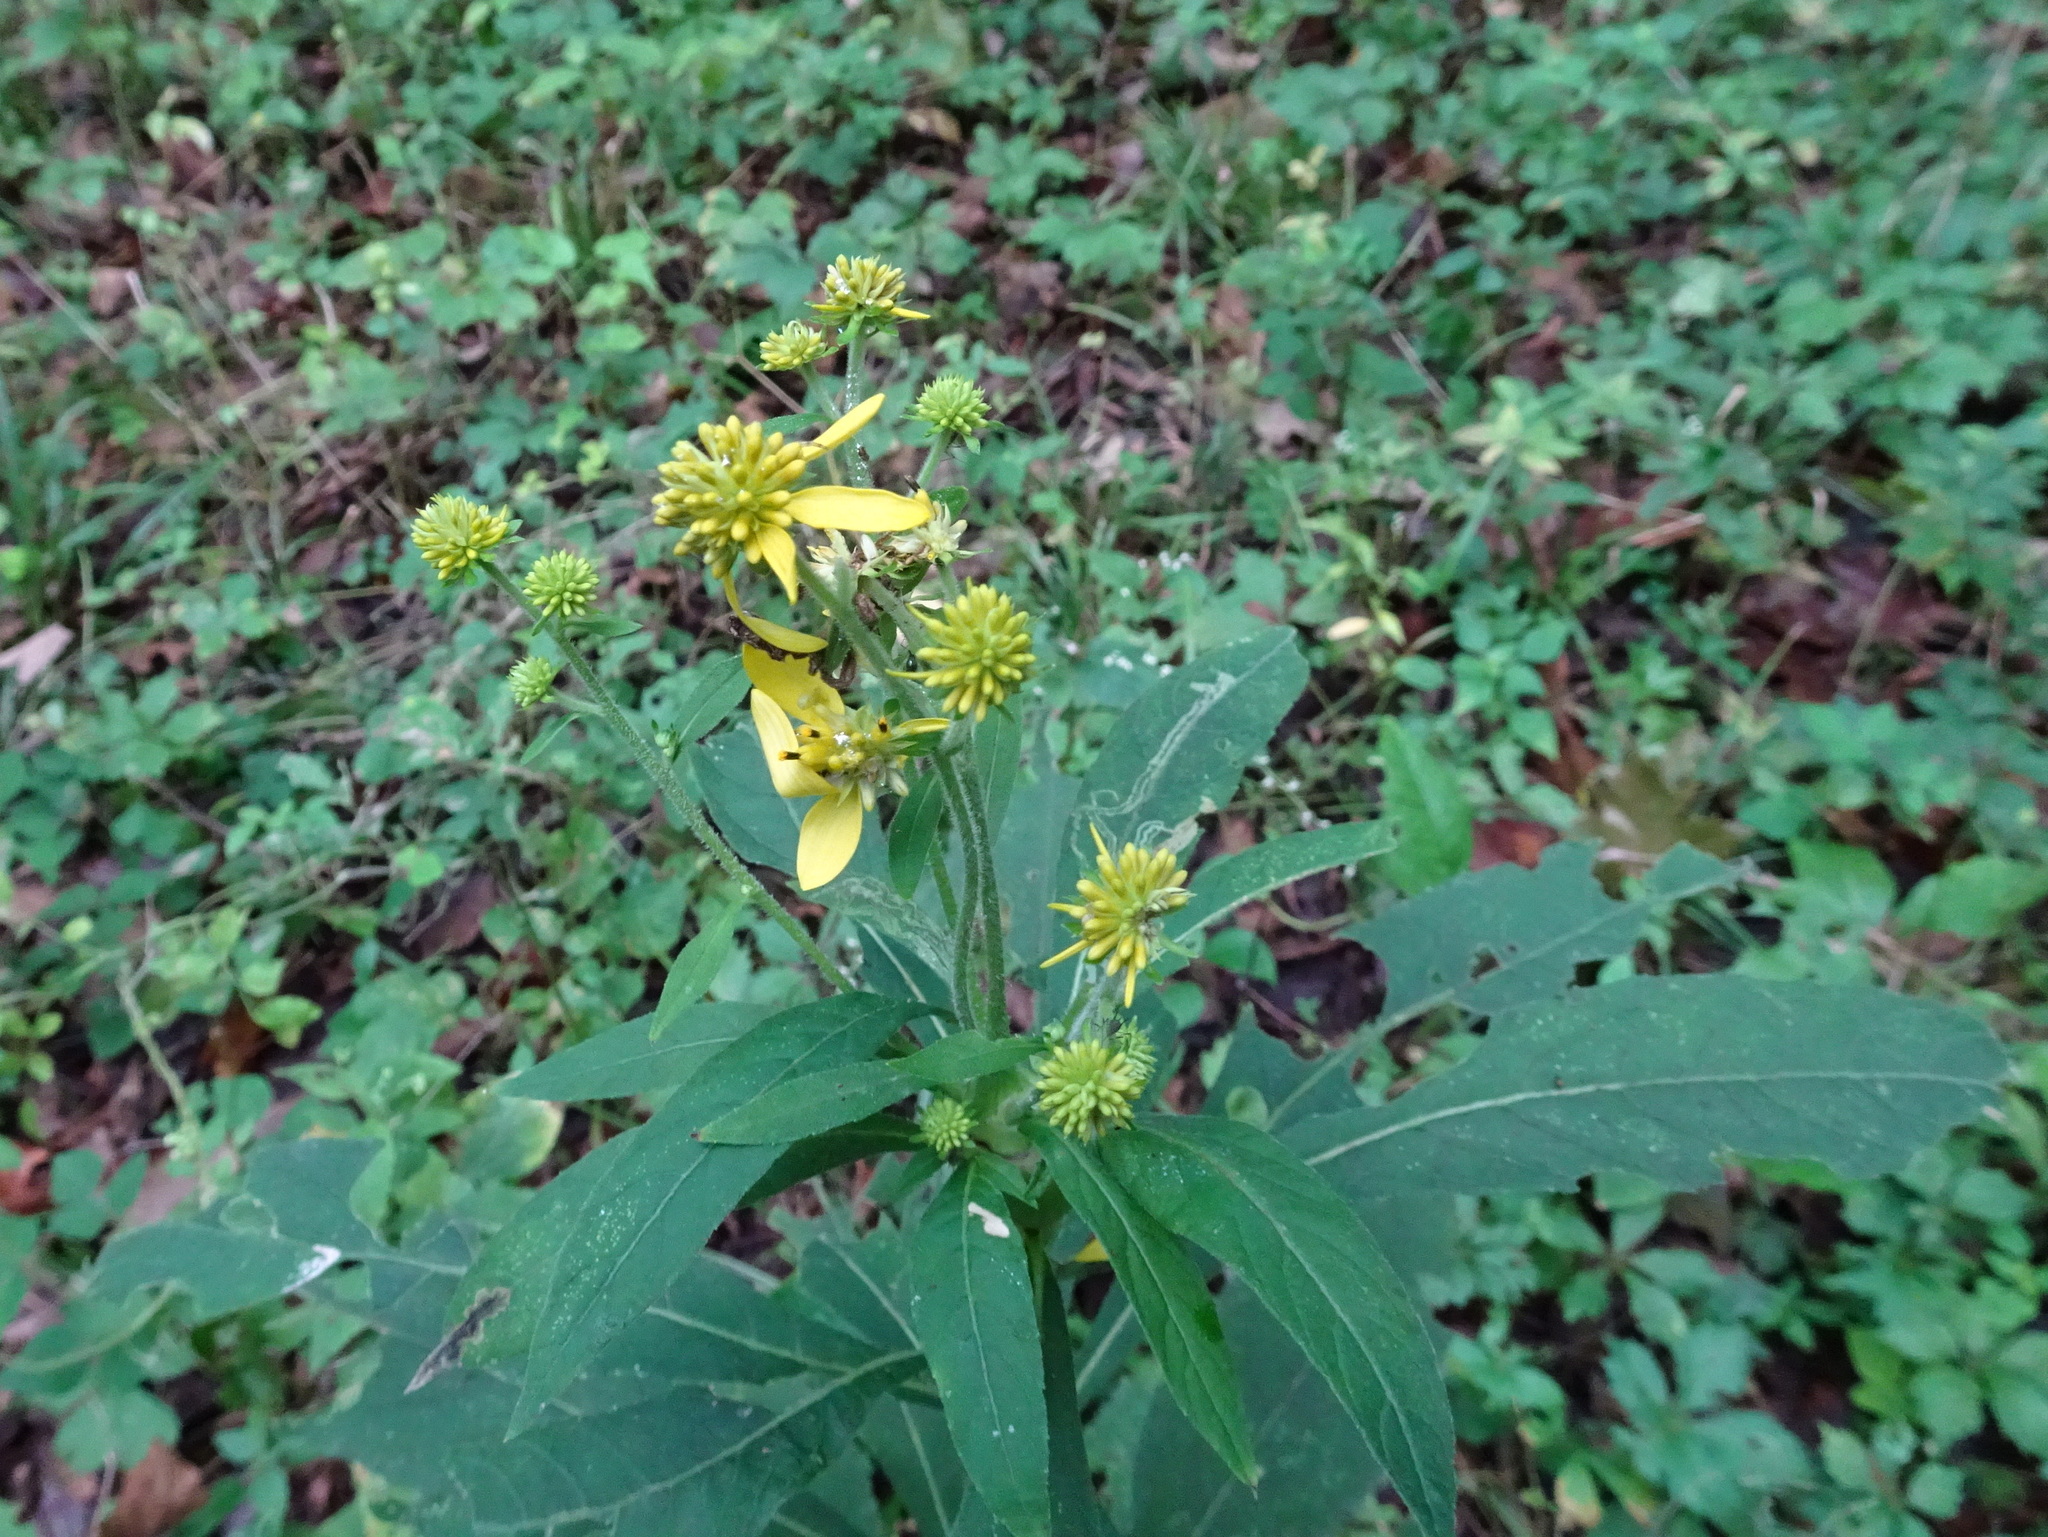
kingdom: Plantae
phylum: Tracheophyta
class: Magnoliopsida
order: Asterales
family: Asteraceae
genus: Verbesina
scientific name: Verbesina alternifolia
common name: Wingstem
